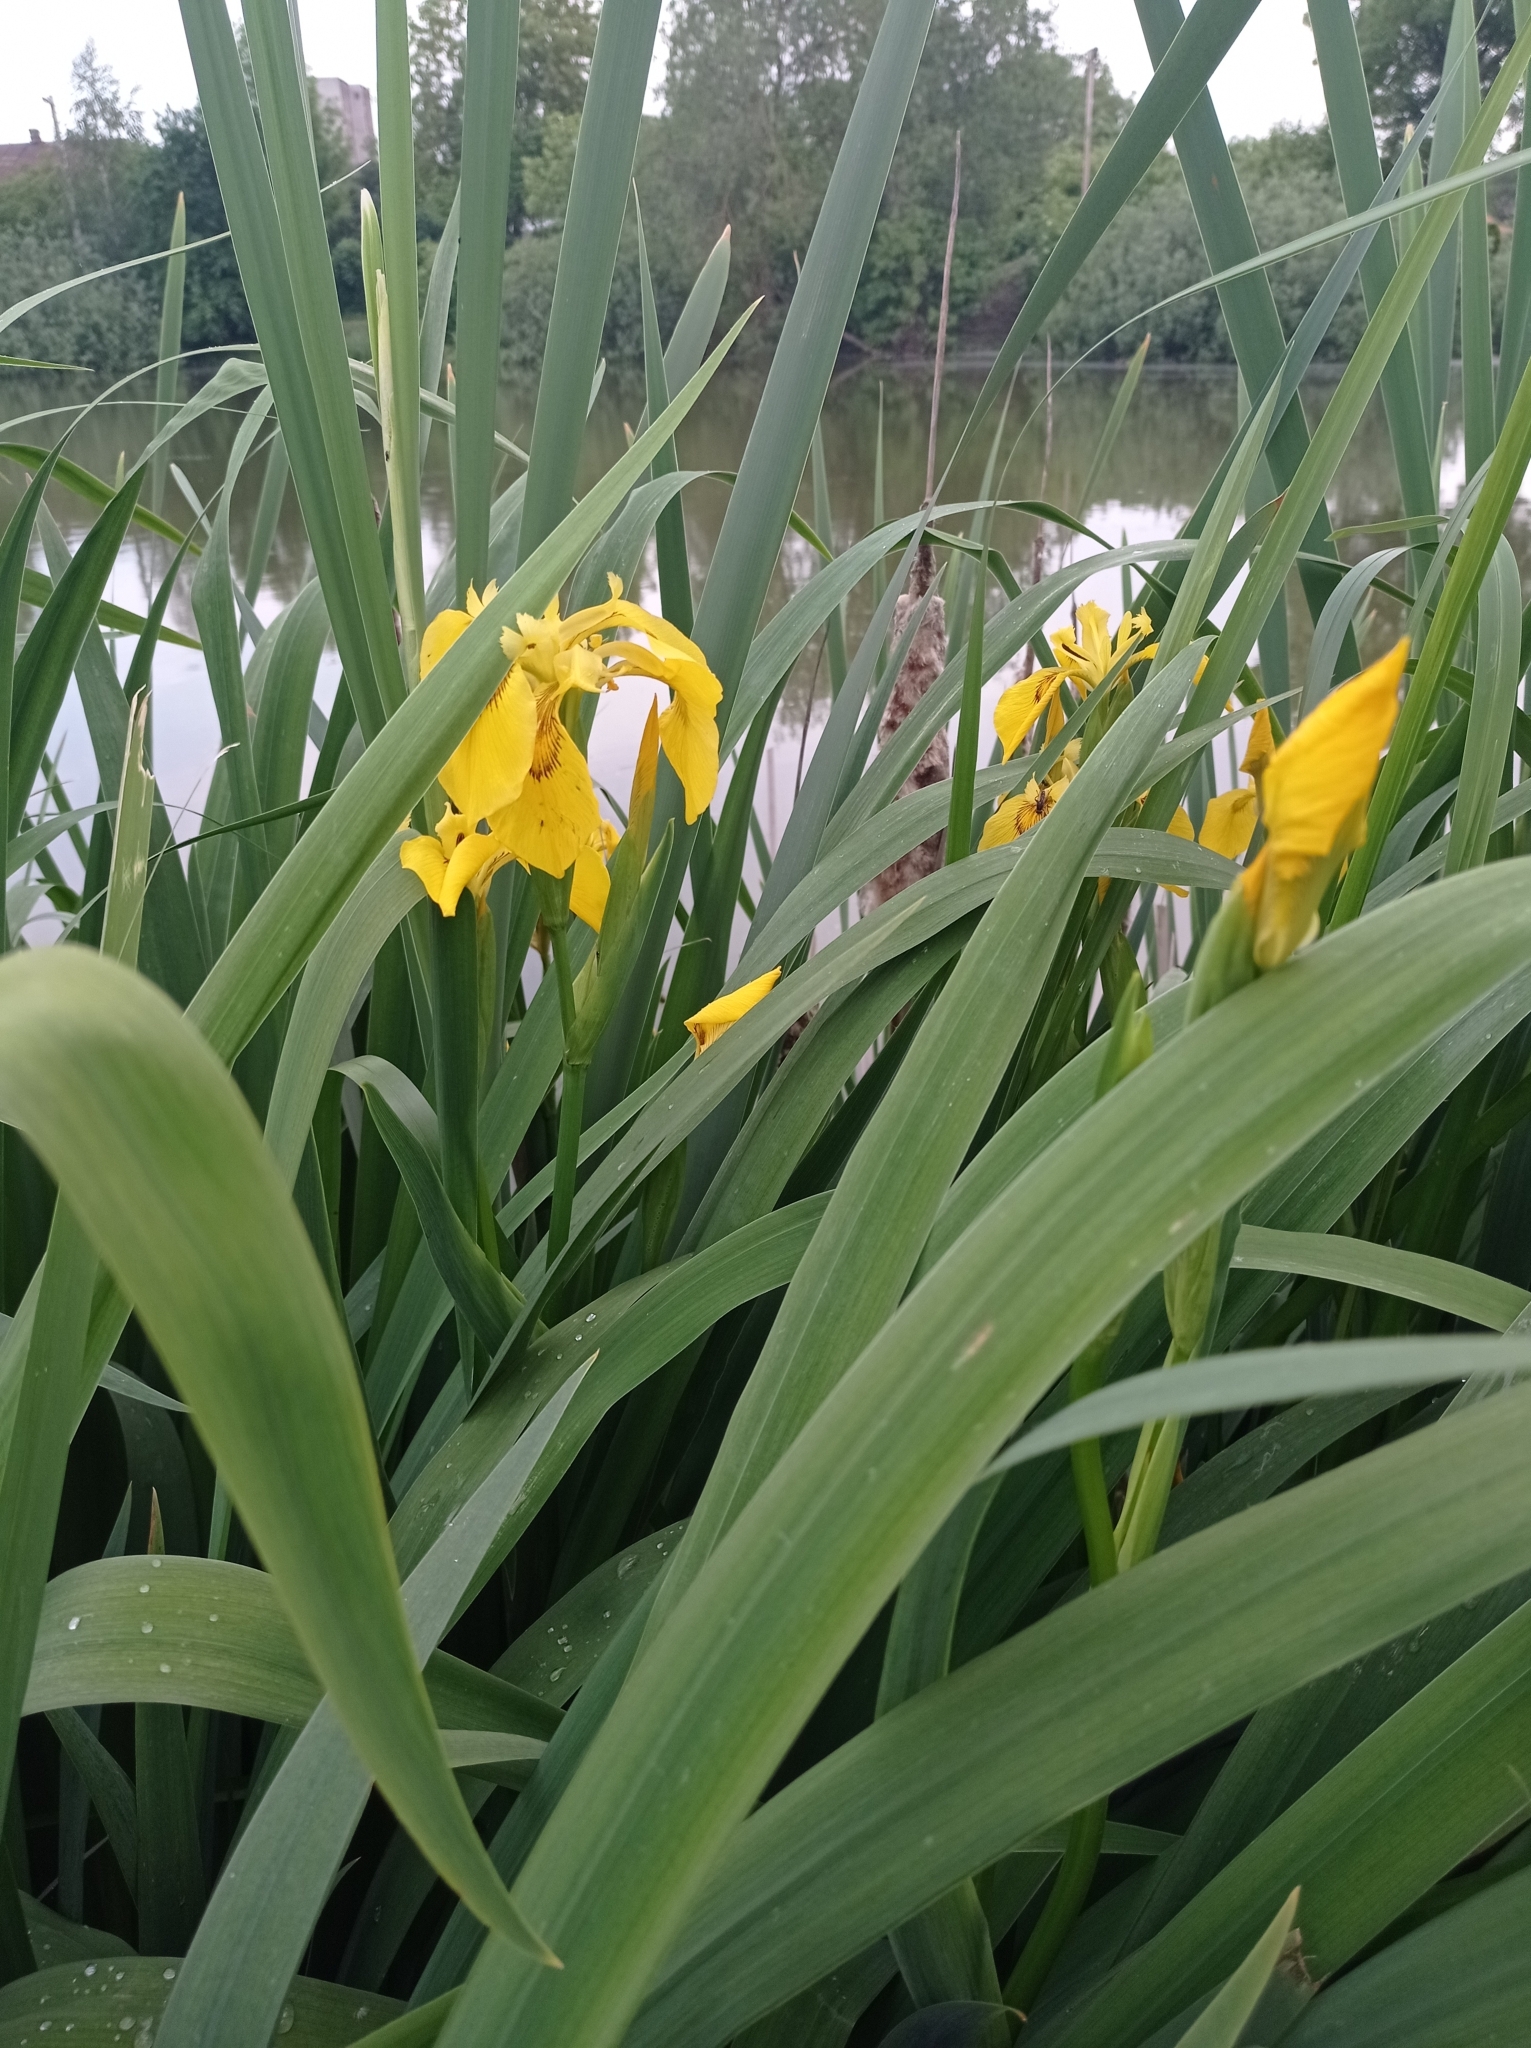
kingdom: Plantae
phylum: Tracheophyta
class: Liliopsida
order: Asparagales
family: Iridaceae
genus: Iris
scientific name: Iris pseudacorus
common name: Yellow flag
